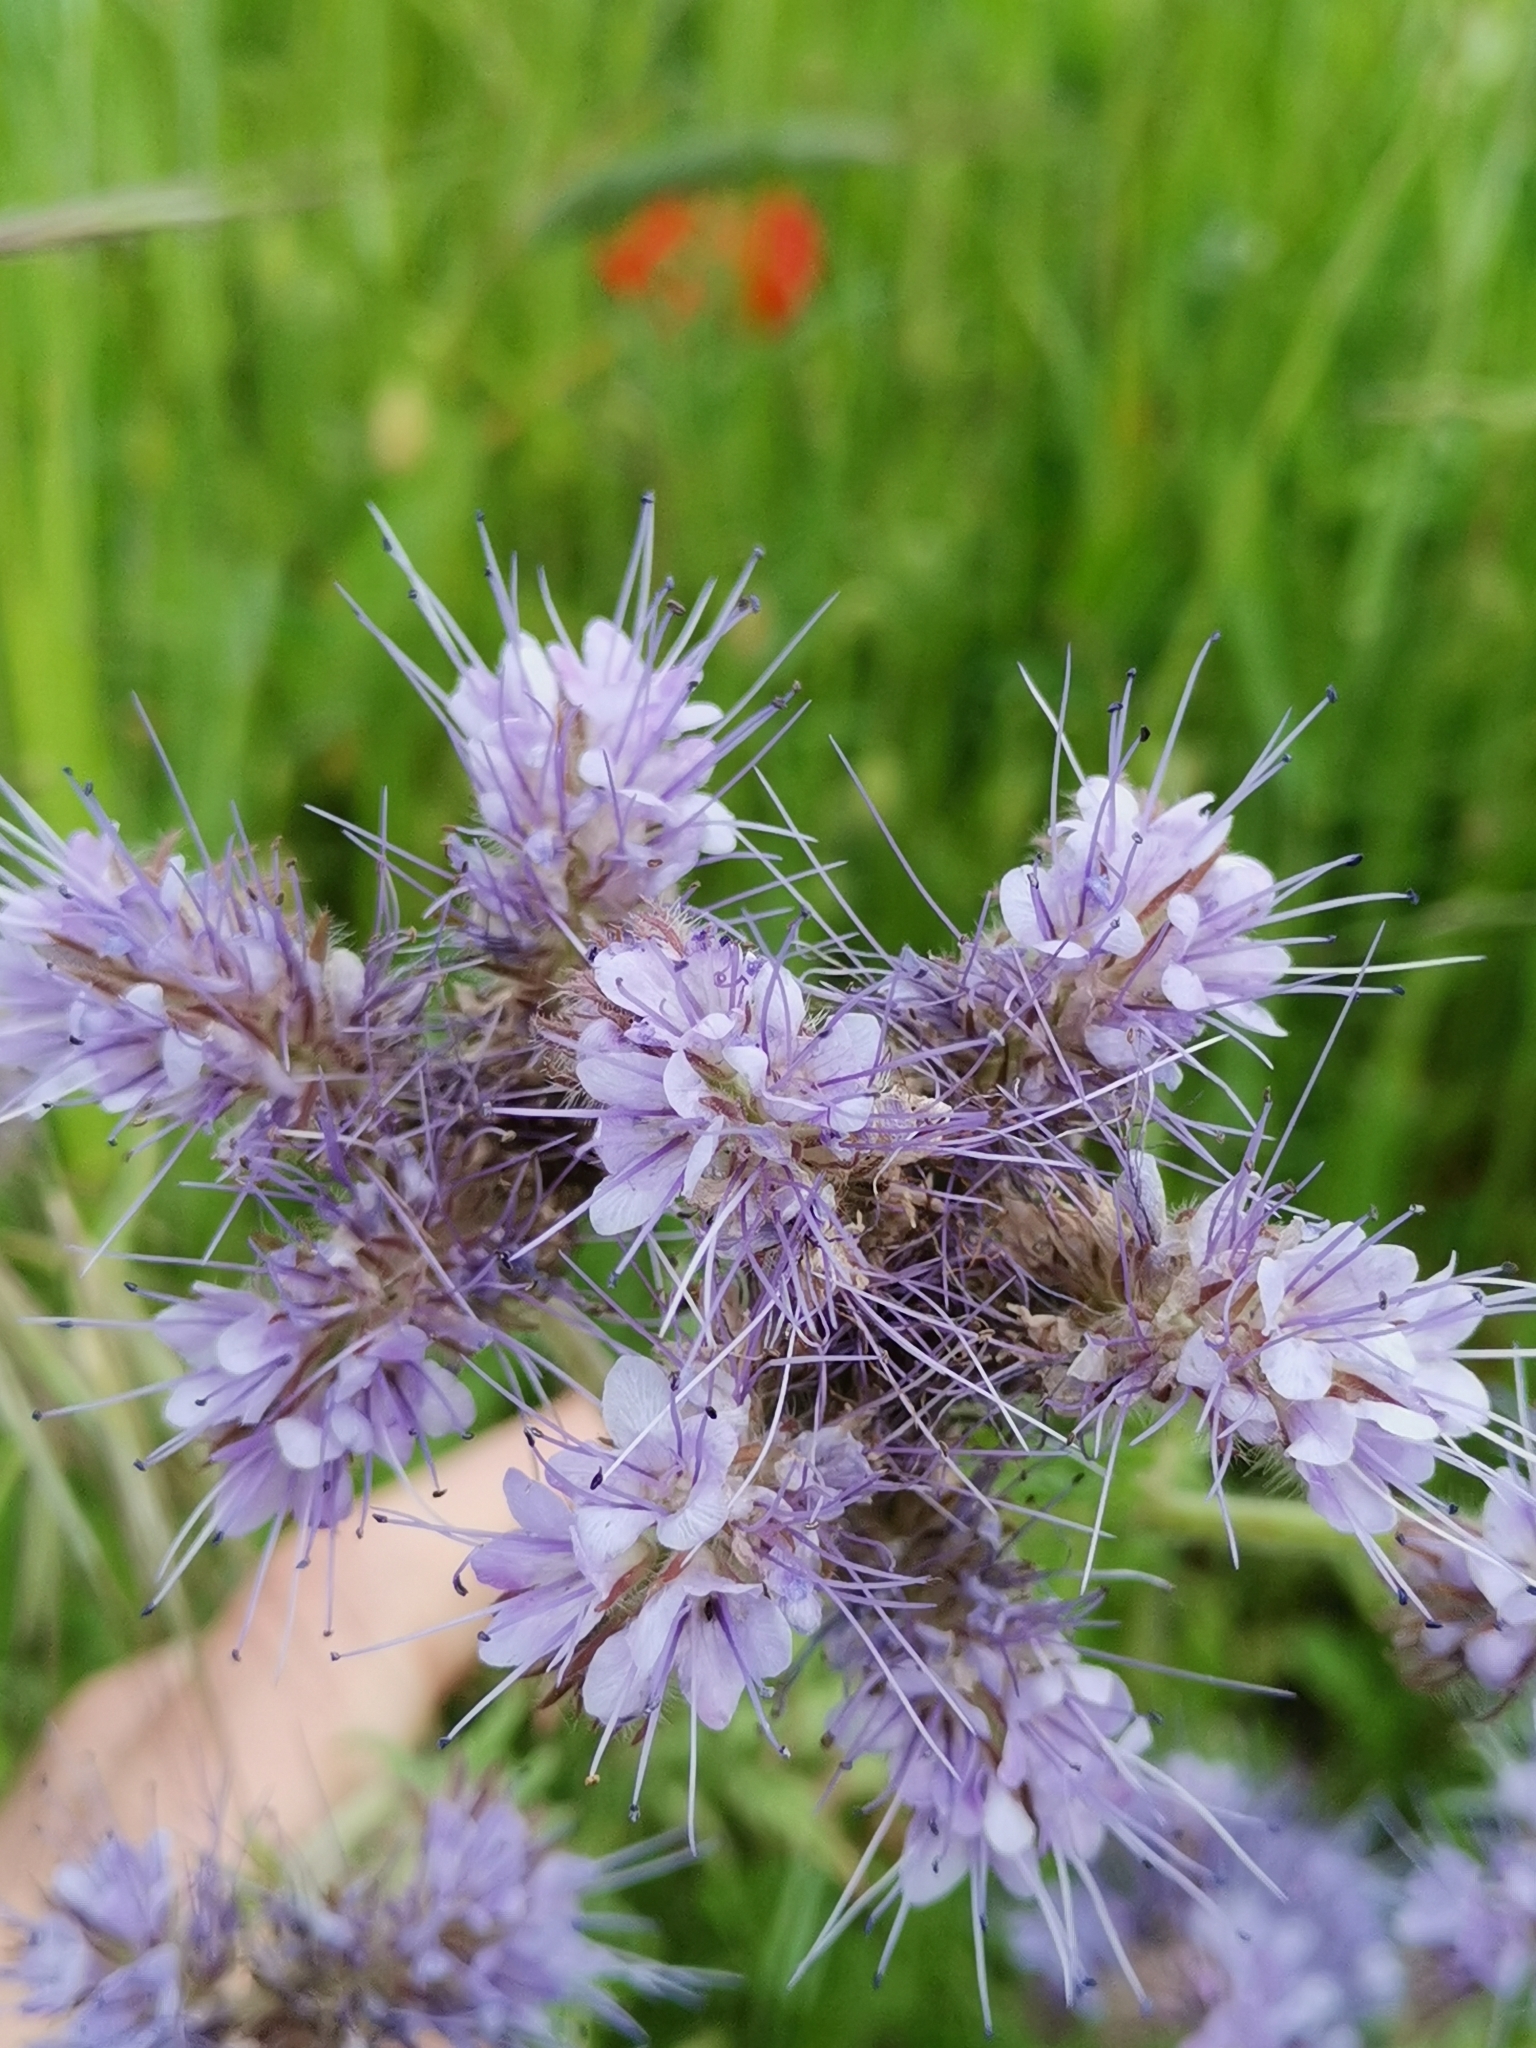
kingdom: Plantae
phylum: Tracheophyta
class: Magnoliopsida
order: Boraginales
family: Hydrophyllaceae
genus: Phacelia
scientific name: Phacelia tanacetifolia
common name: Phacelia
